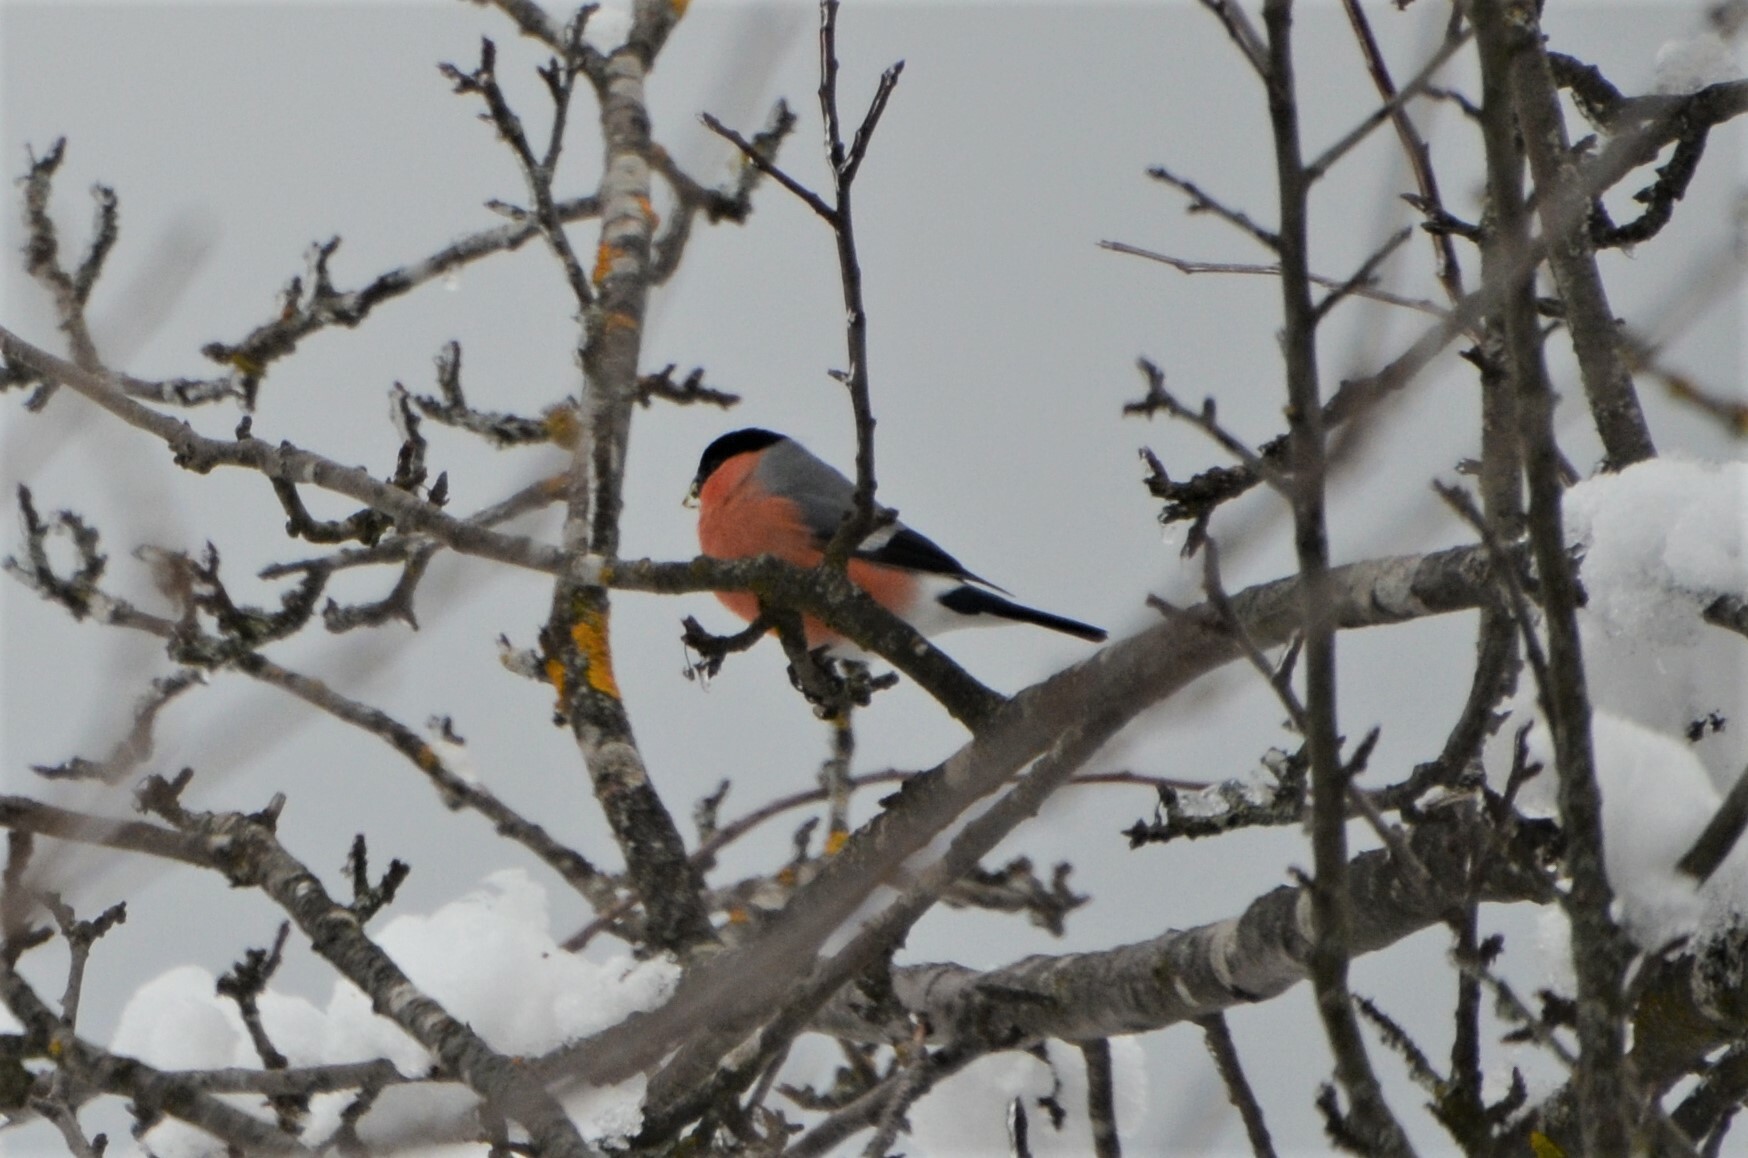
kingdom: Animalia
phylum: Chordata
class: Aves
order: Passeriformes
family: Fringillidae
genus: Pyrrhula
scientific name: Pyrrhula pyrrhula
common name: Eurasian bullfinch
